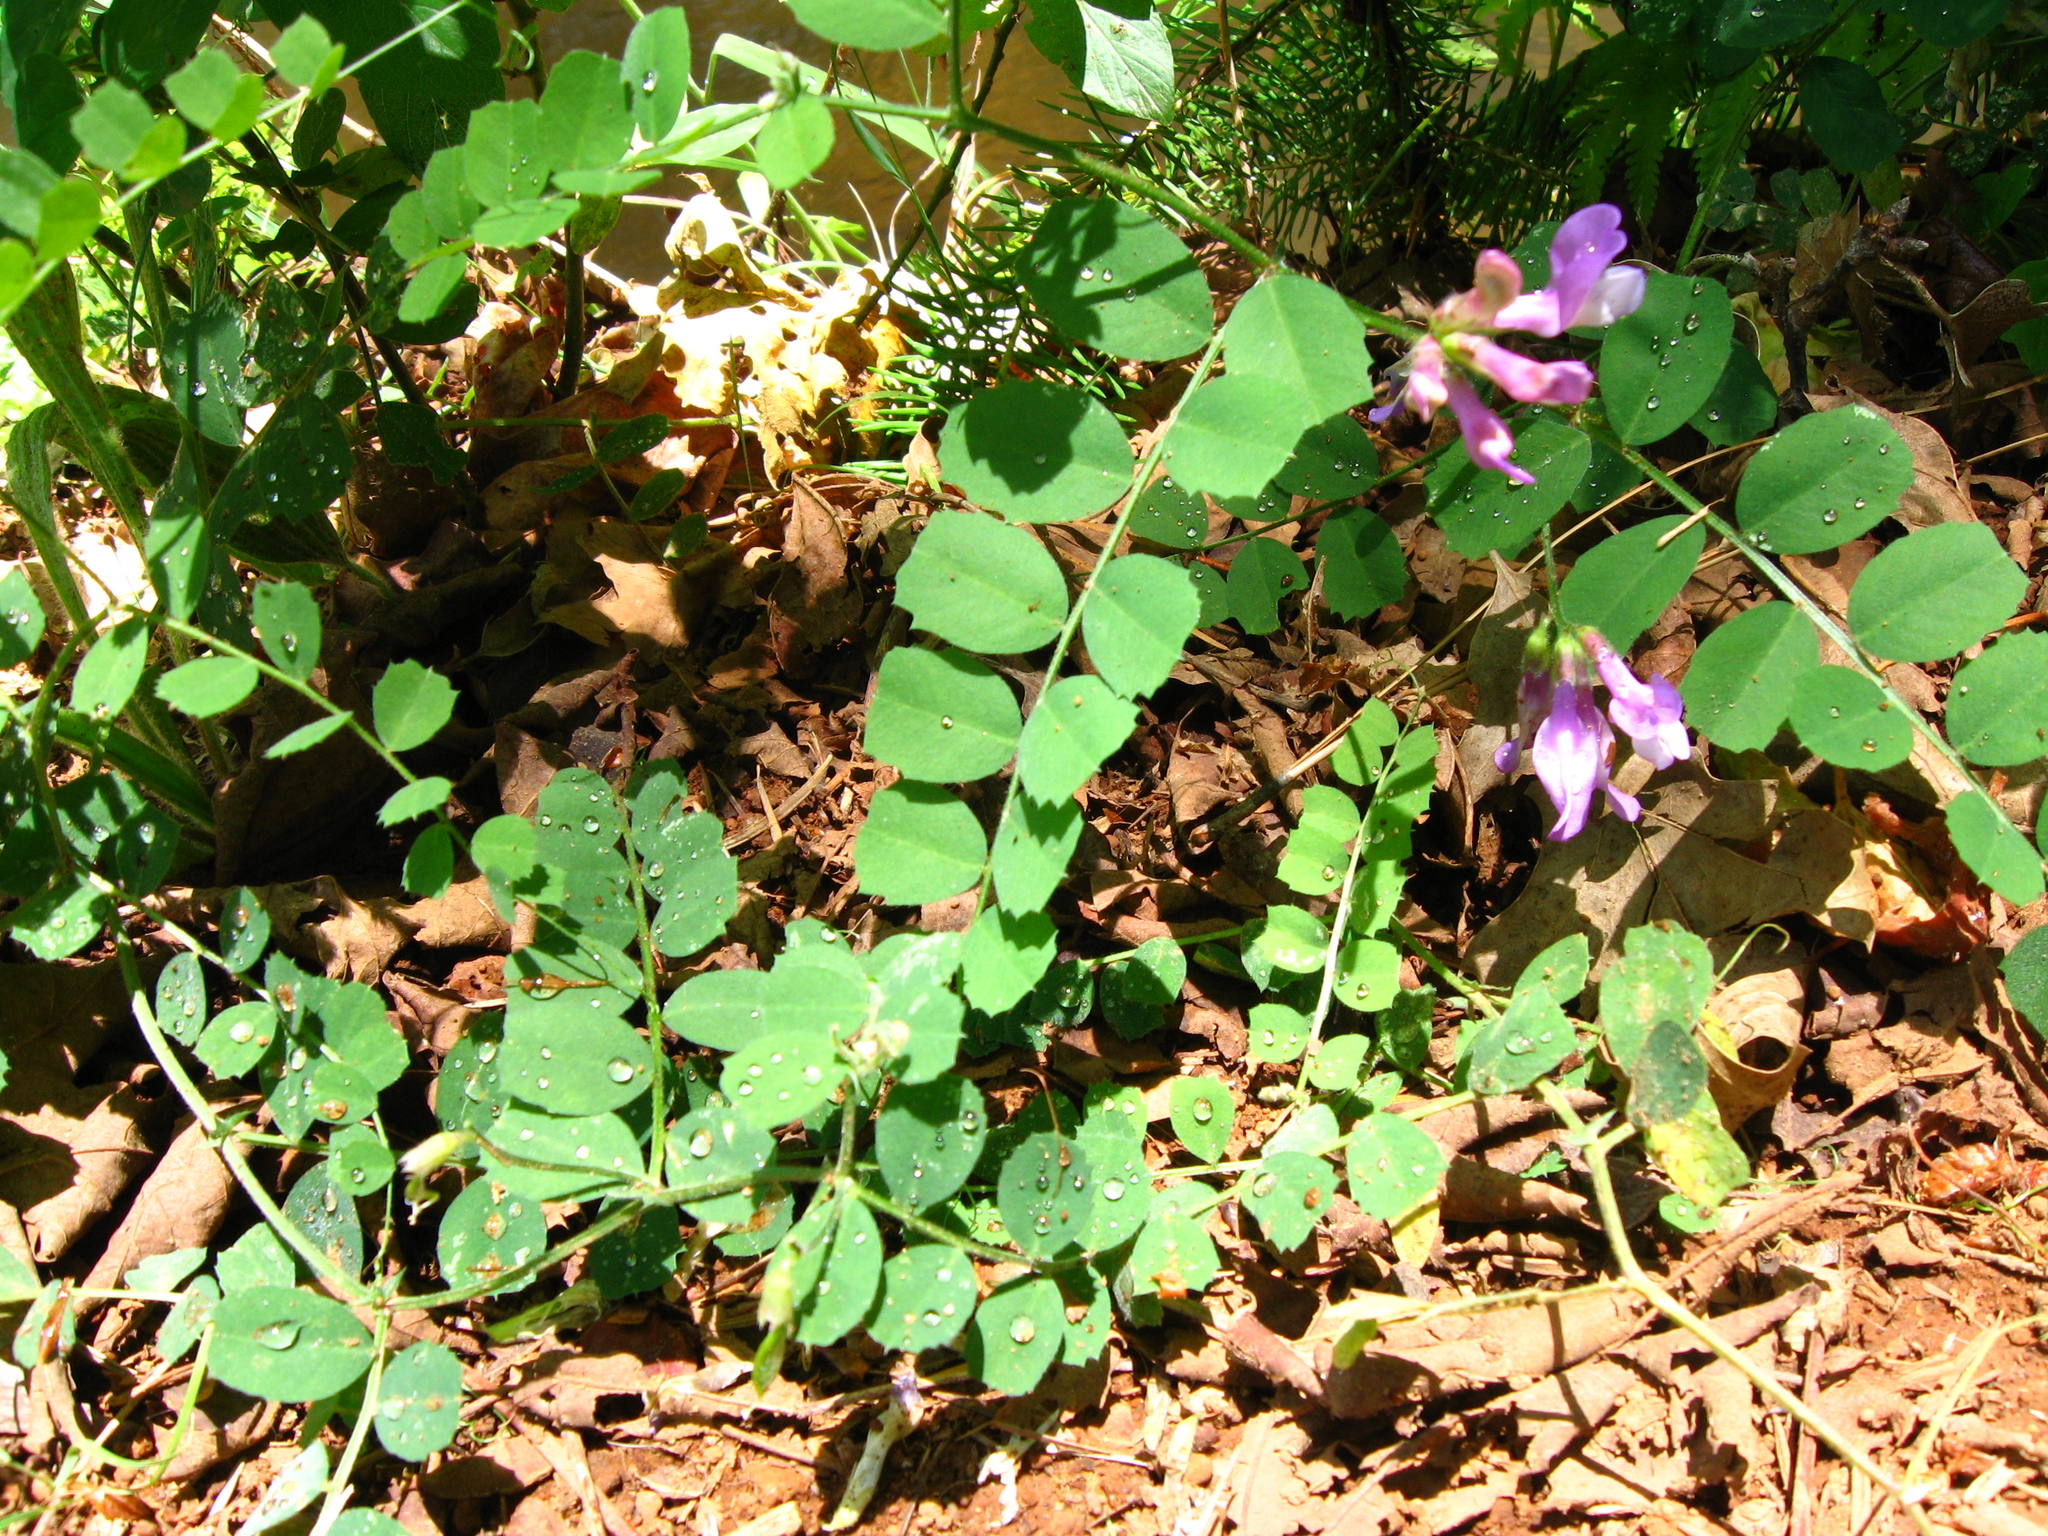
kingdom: Plantae
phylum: Tracheophyta
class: Magnoliopsida
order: Fabales
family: Fabaceae
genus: Vicia
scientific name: Vicia americana
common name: American vetch
